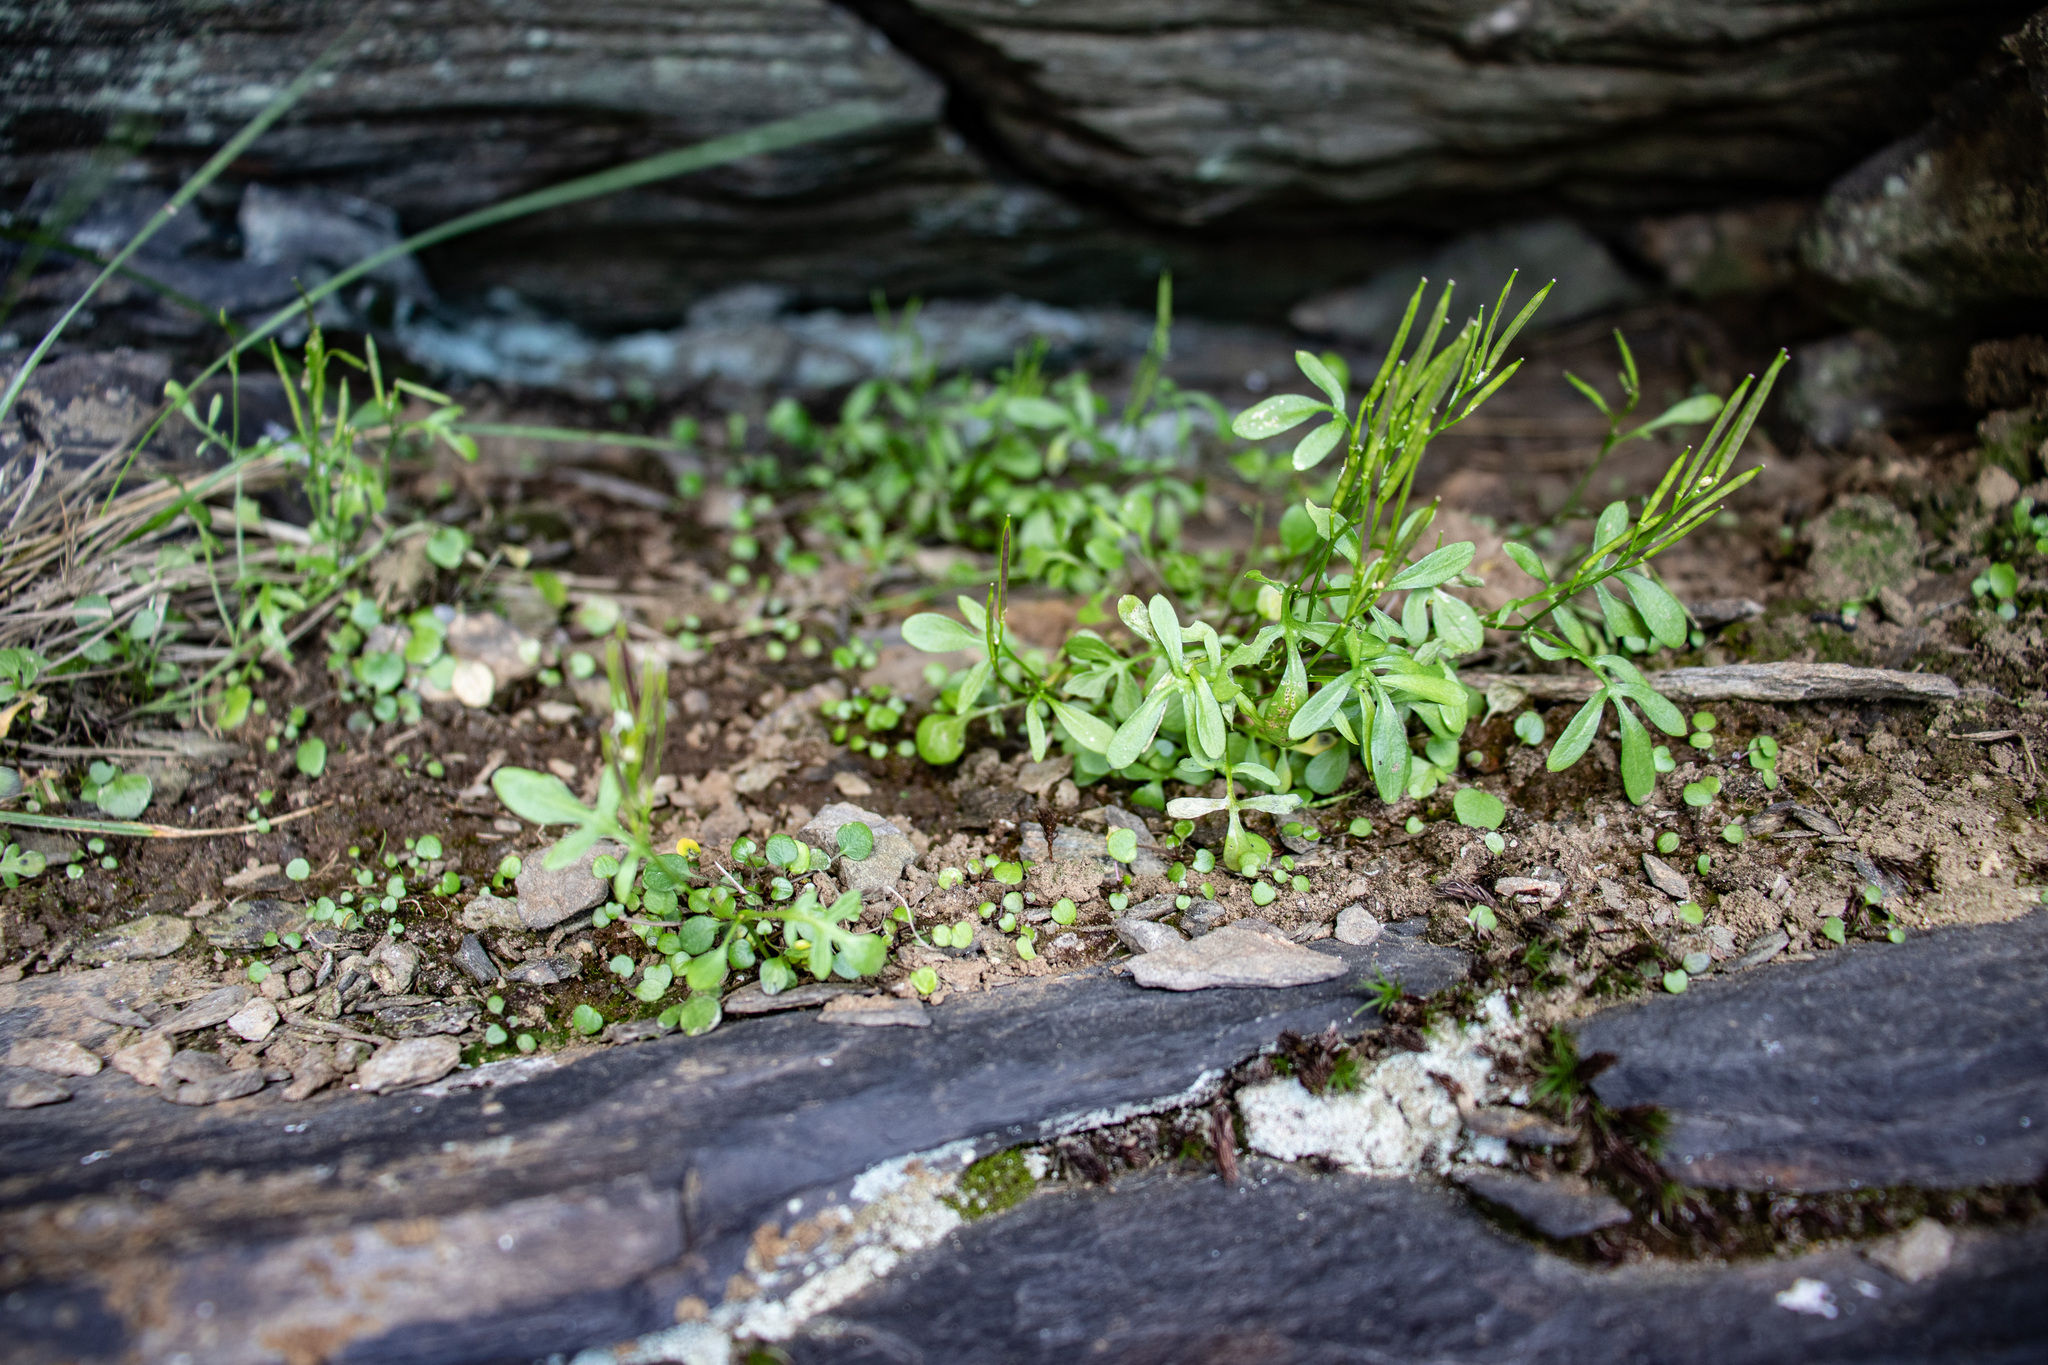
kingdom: Plantae
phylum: Tracheophyta
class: Magnoliopsida
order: Brassicales
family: Brassicaceae
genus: Cardamine
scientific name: Cardamine resedifolia
